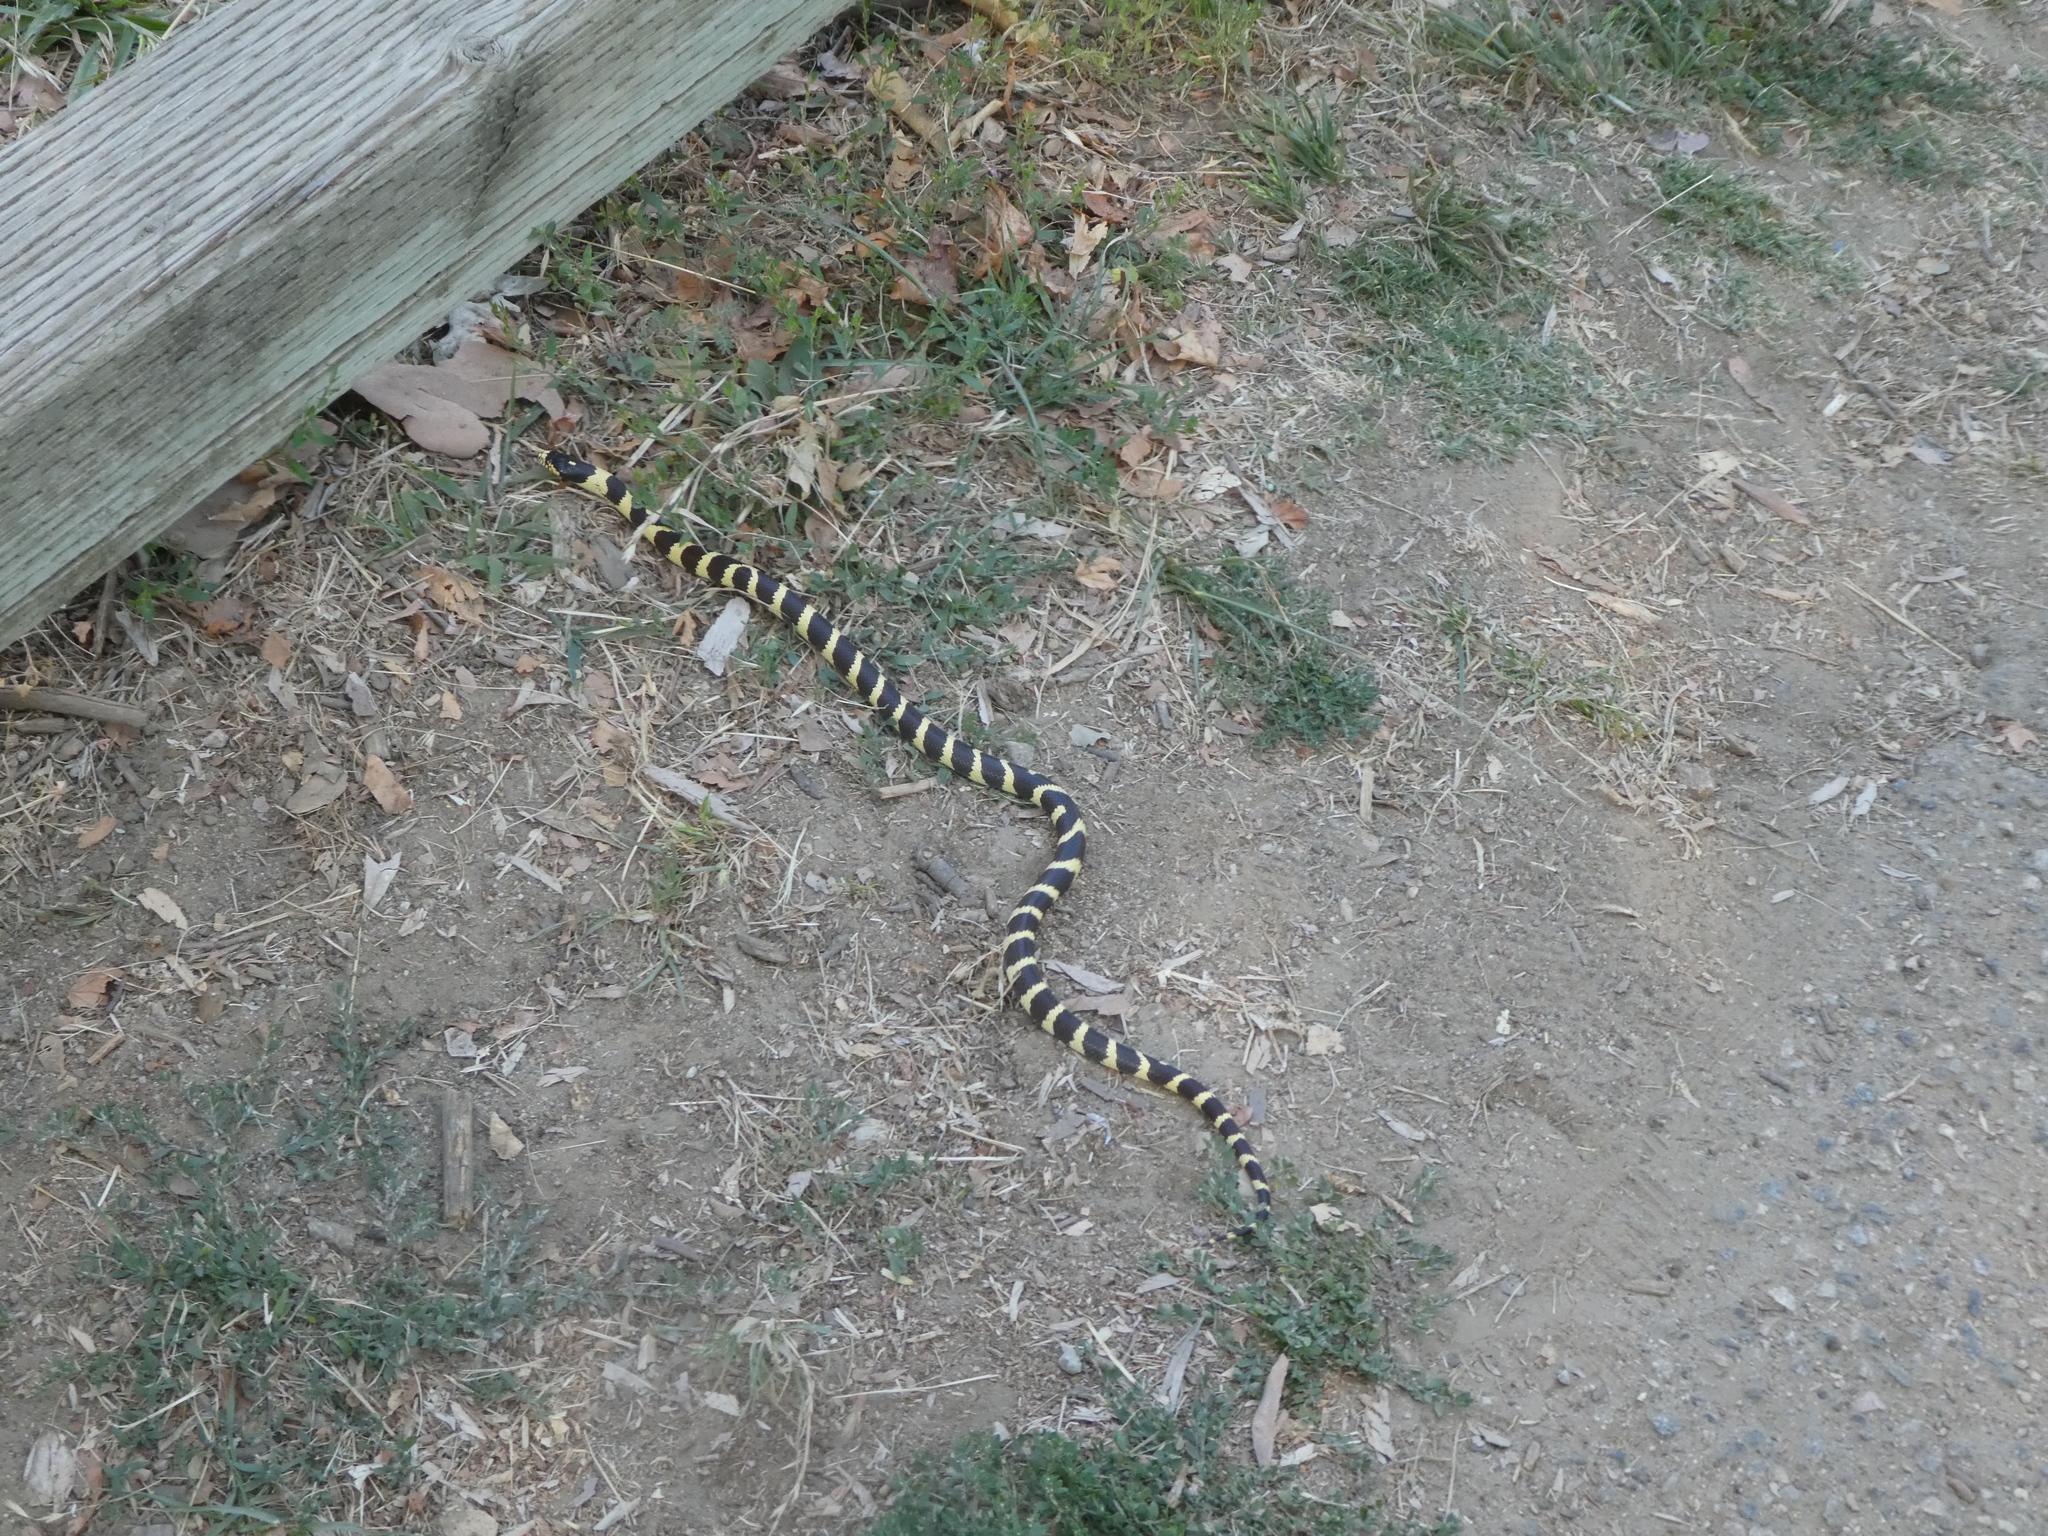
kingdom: Animalia
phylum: Chordata
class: Squamata
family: Colubridae
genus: Lampropeltis
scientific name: Lampropeltis californiae
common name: California kingsnake
